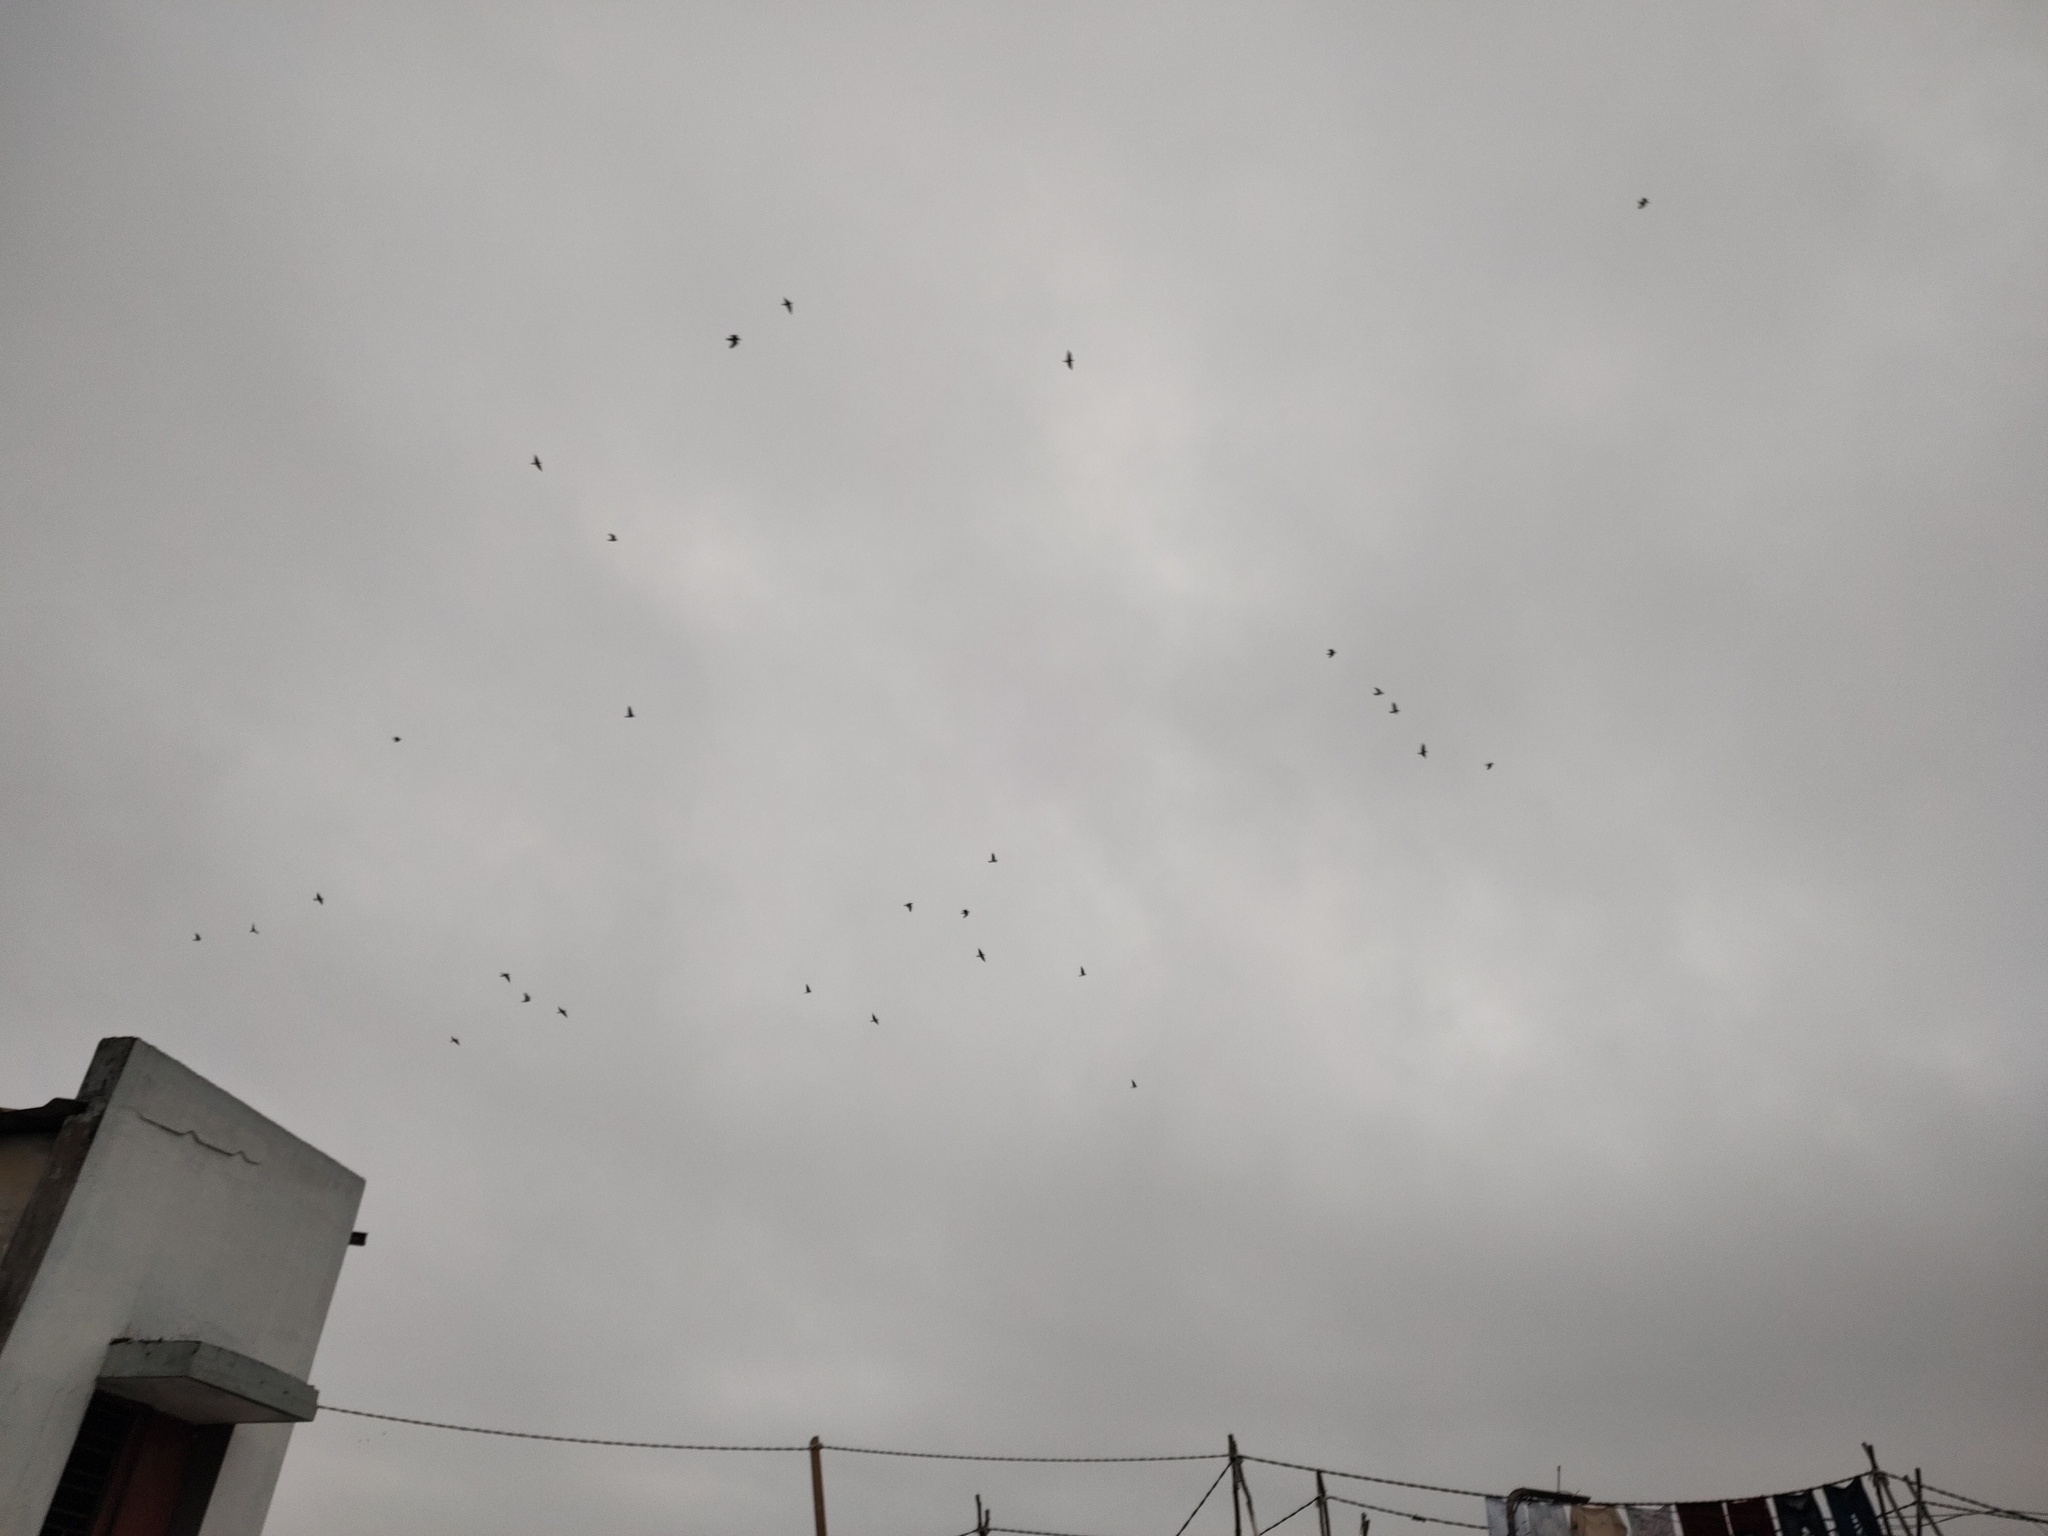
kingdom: Animalia
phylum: Chordata
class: Aves
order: Columbiformes
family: Columbidae
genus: Columba
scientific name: Columba livia
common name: Rock pigeon
